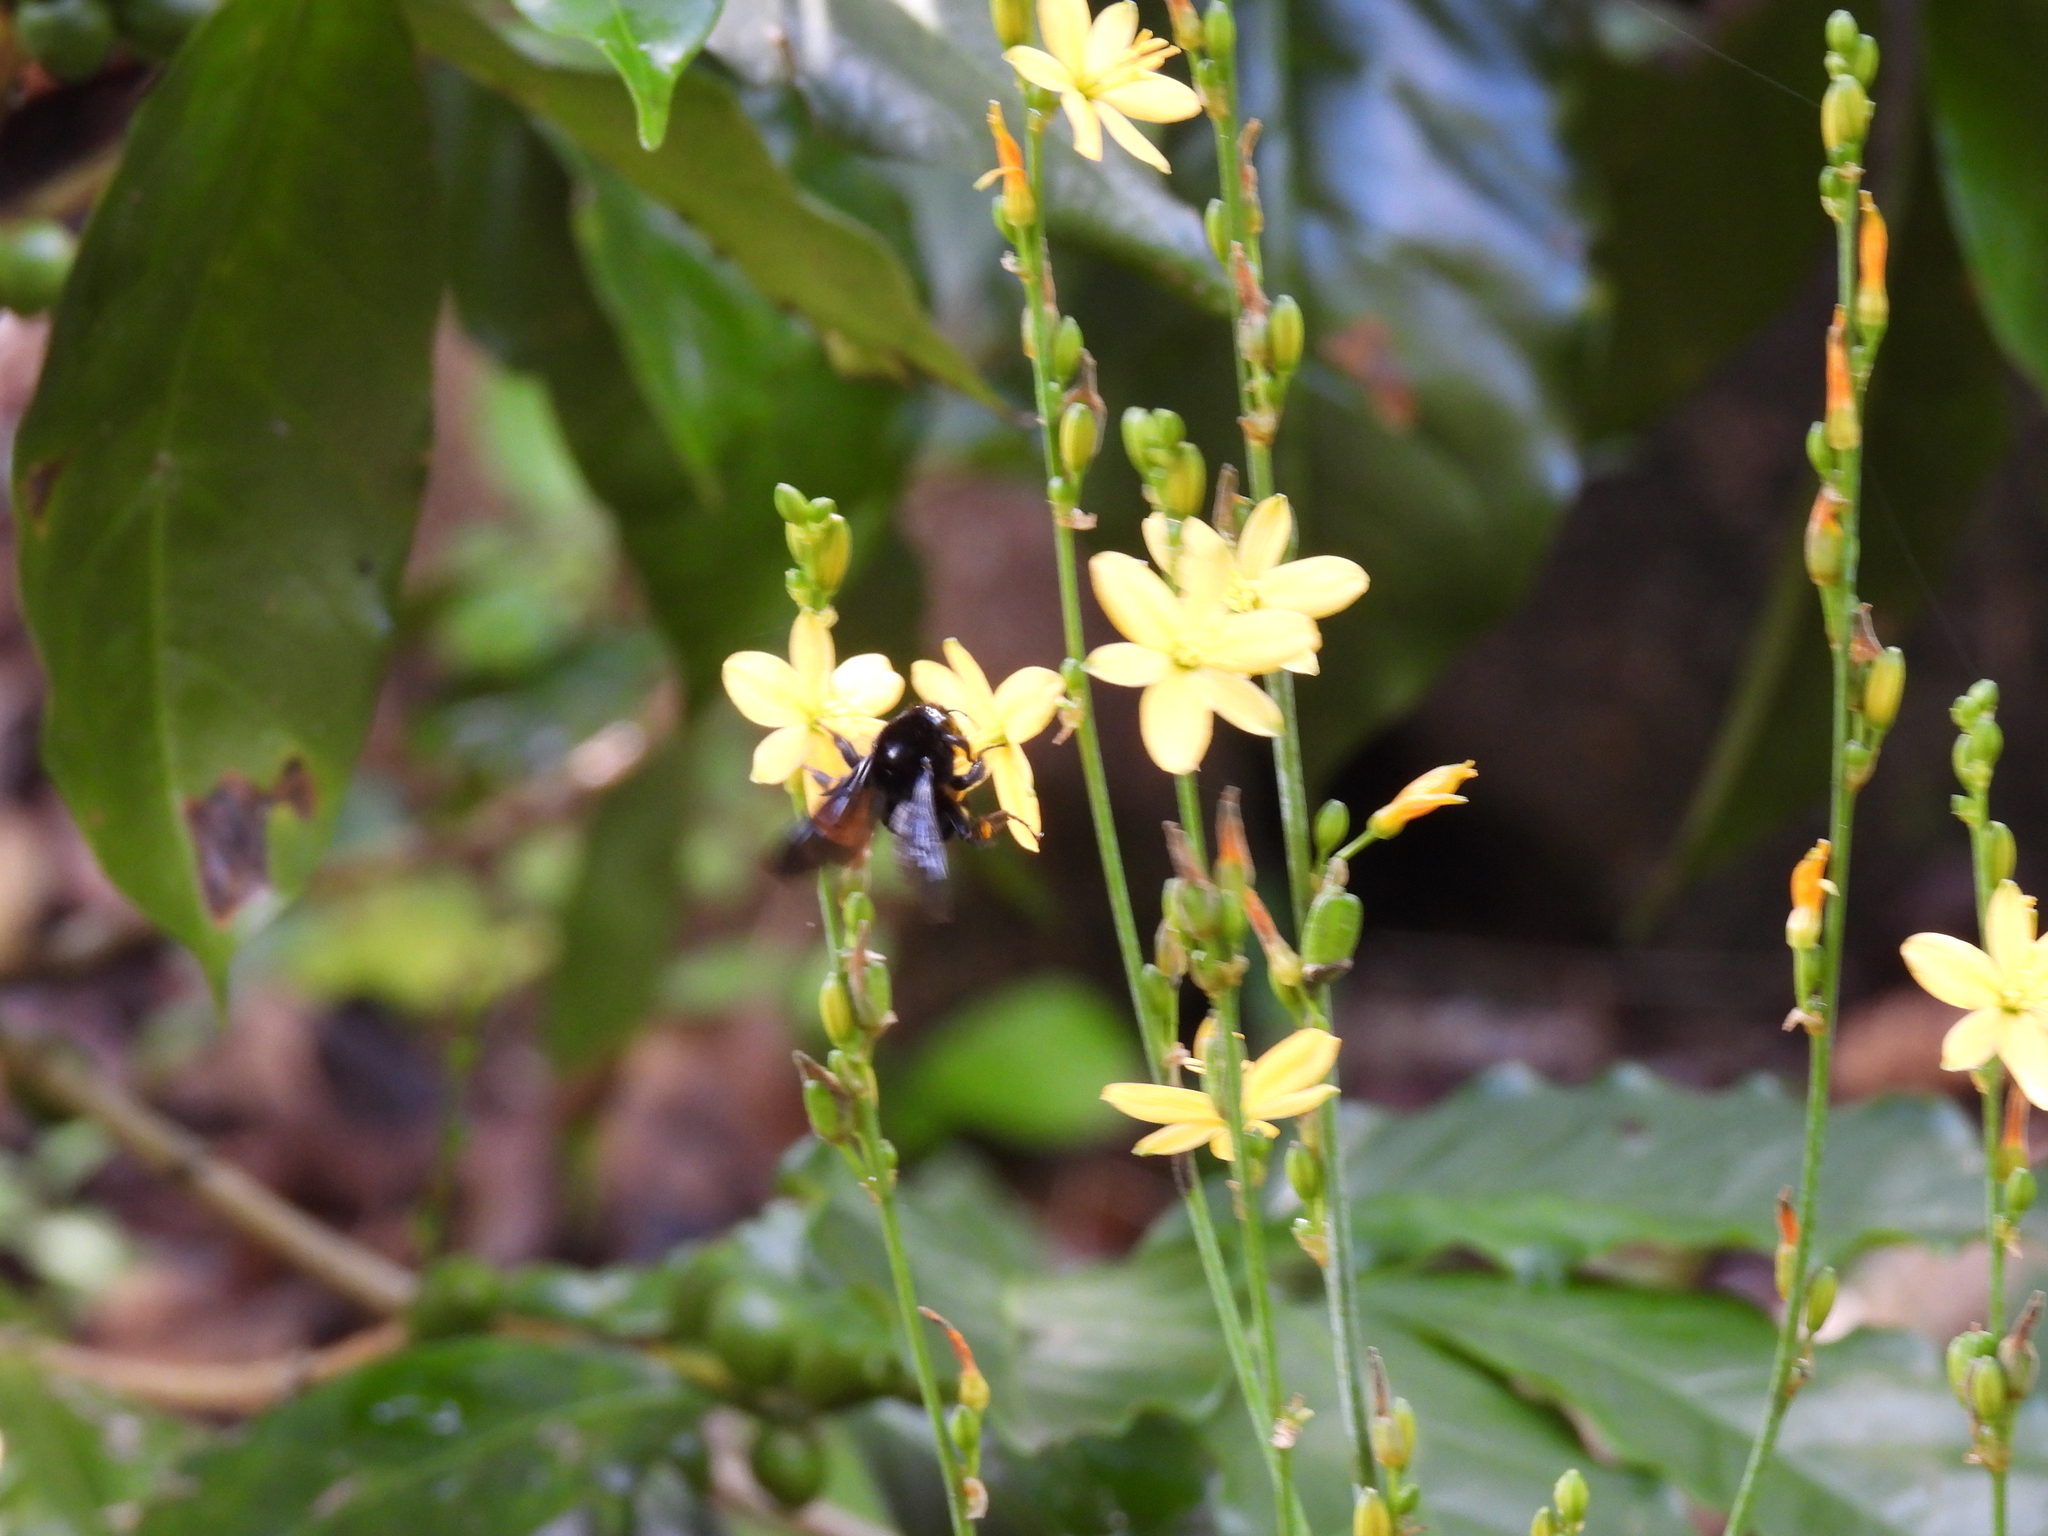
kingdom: Animalia
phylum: Arthropoda
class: Insecta
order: Hymenoptera
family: Apidae
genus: Bombus
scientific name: Bombus mexicanus
